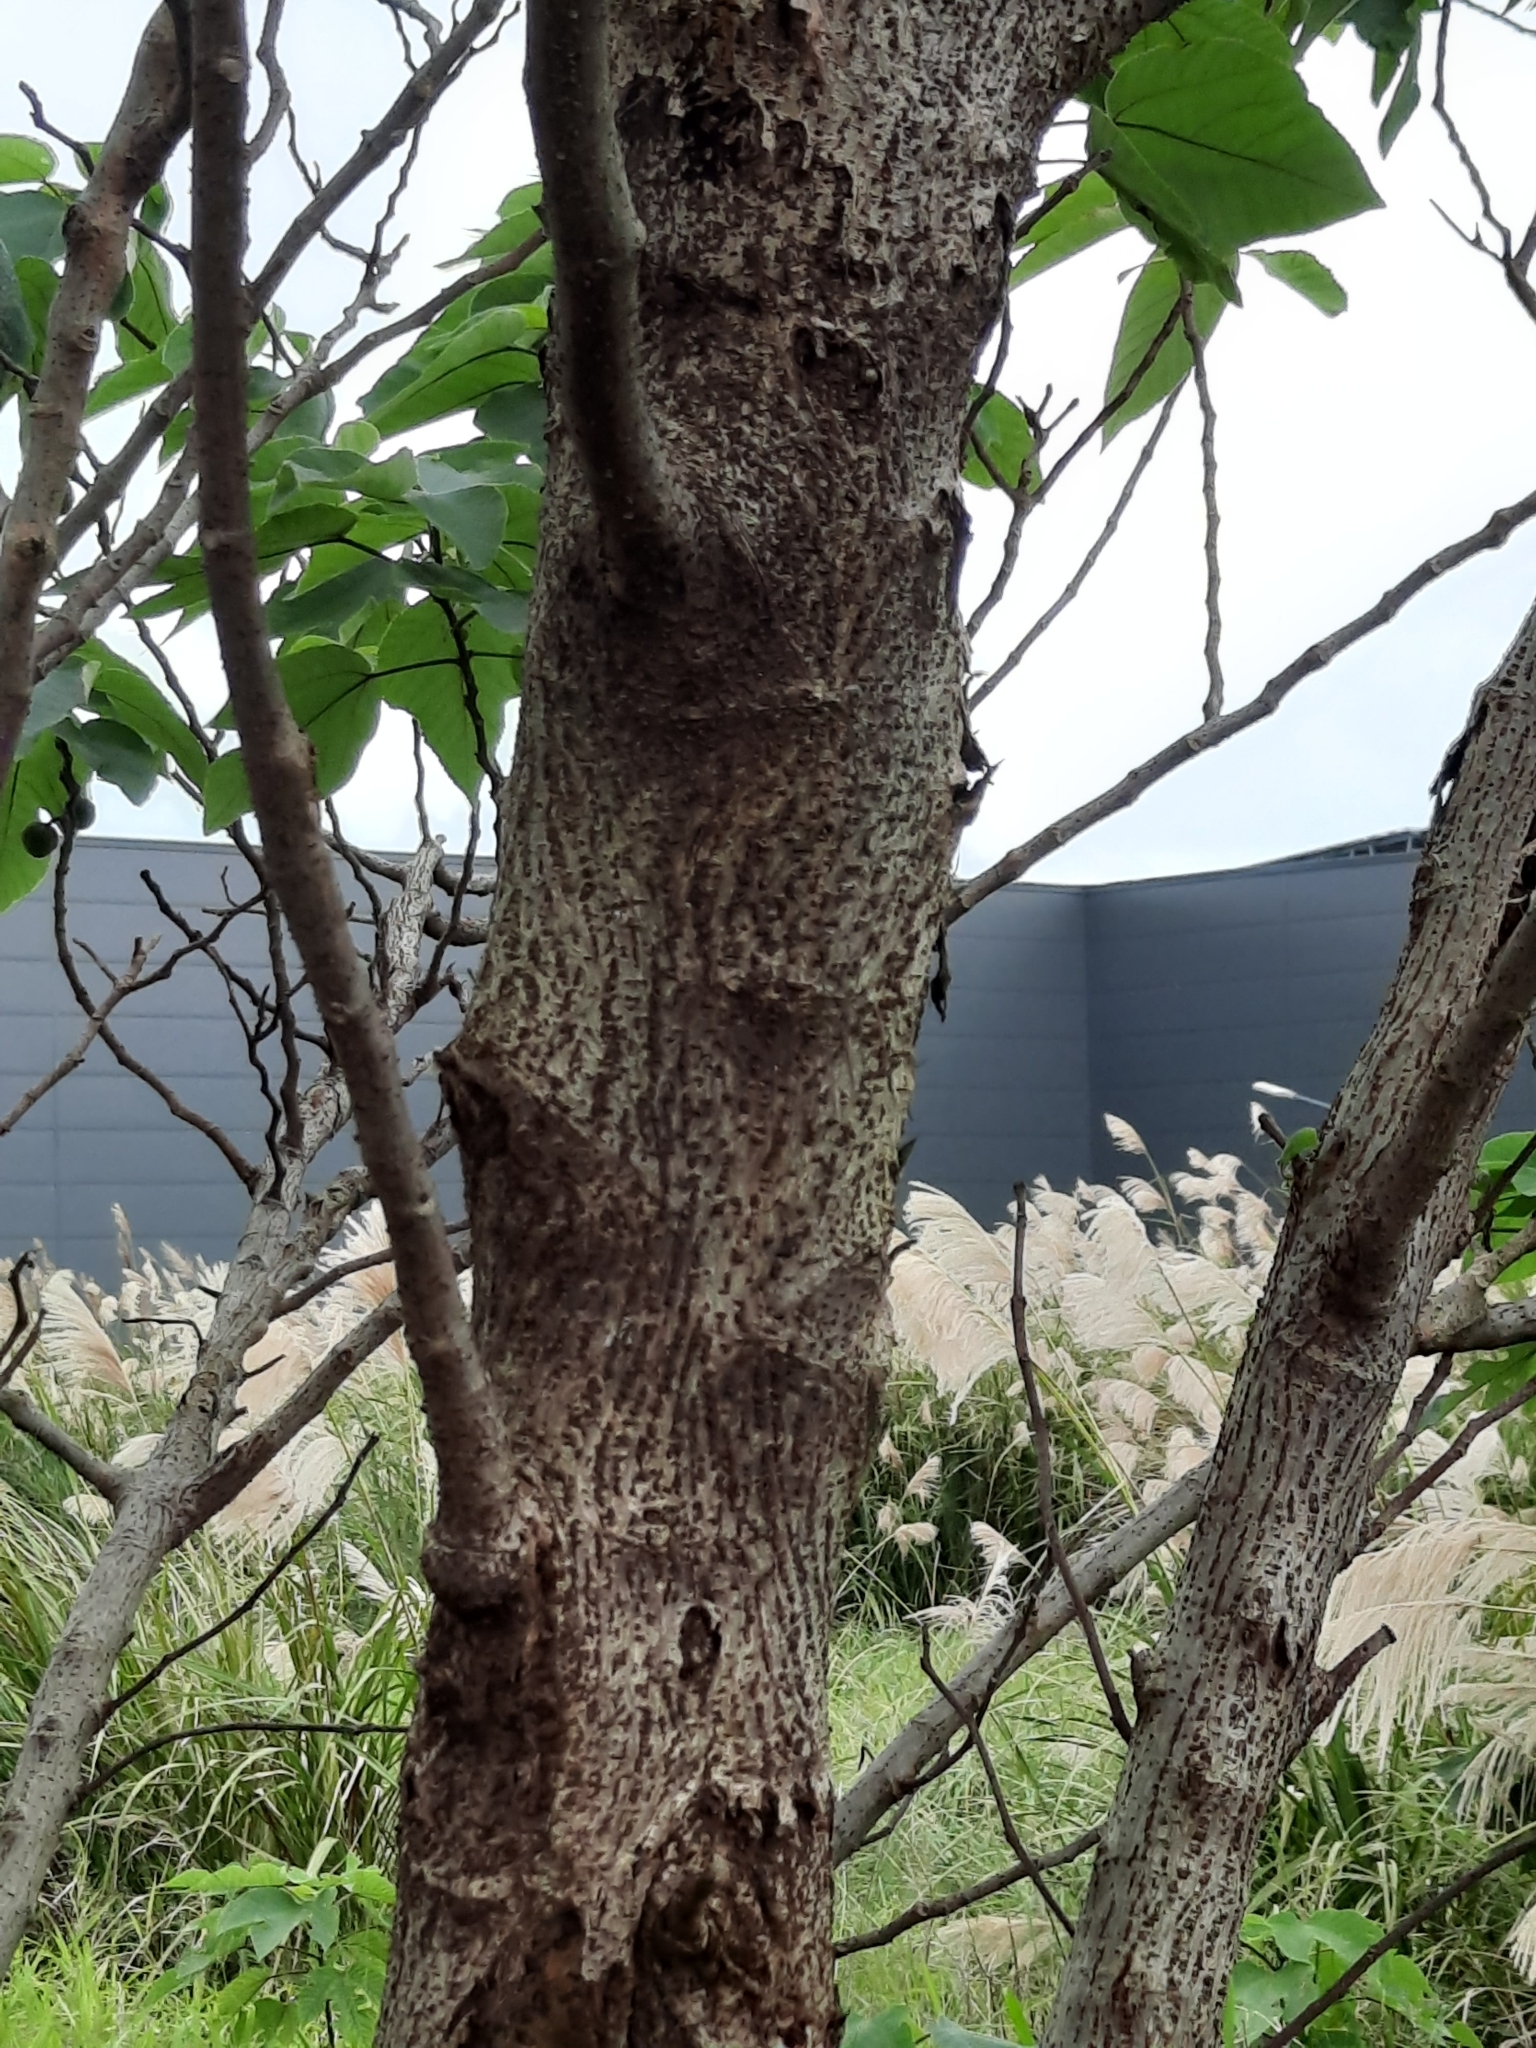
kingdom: Plantae
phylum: Tracheophyta
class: Magnoliopsida
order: Rosales
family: Moraceae
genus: Broussonetia
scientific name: Broussonetia papyrifera
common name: Paper mulberry
